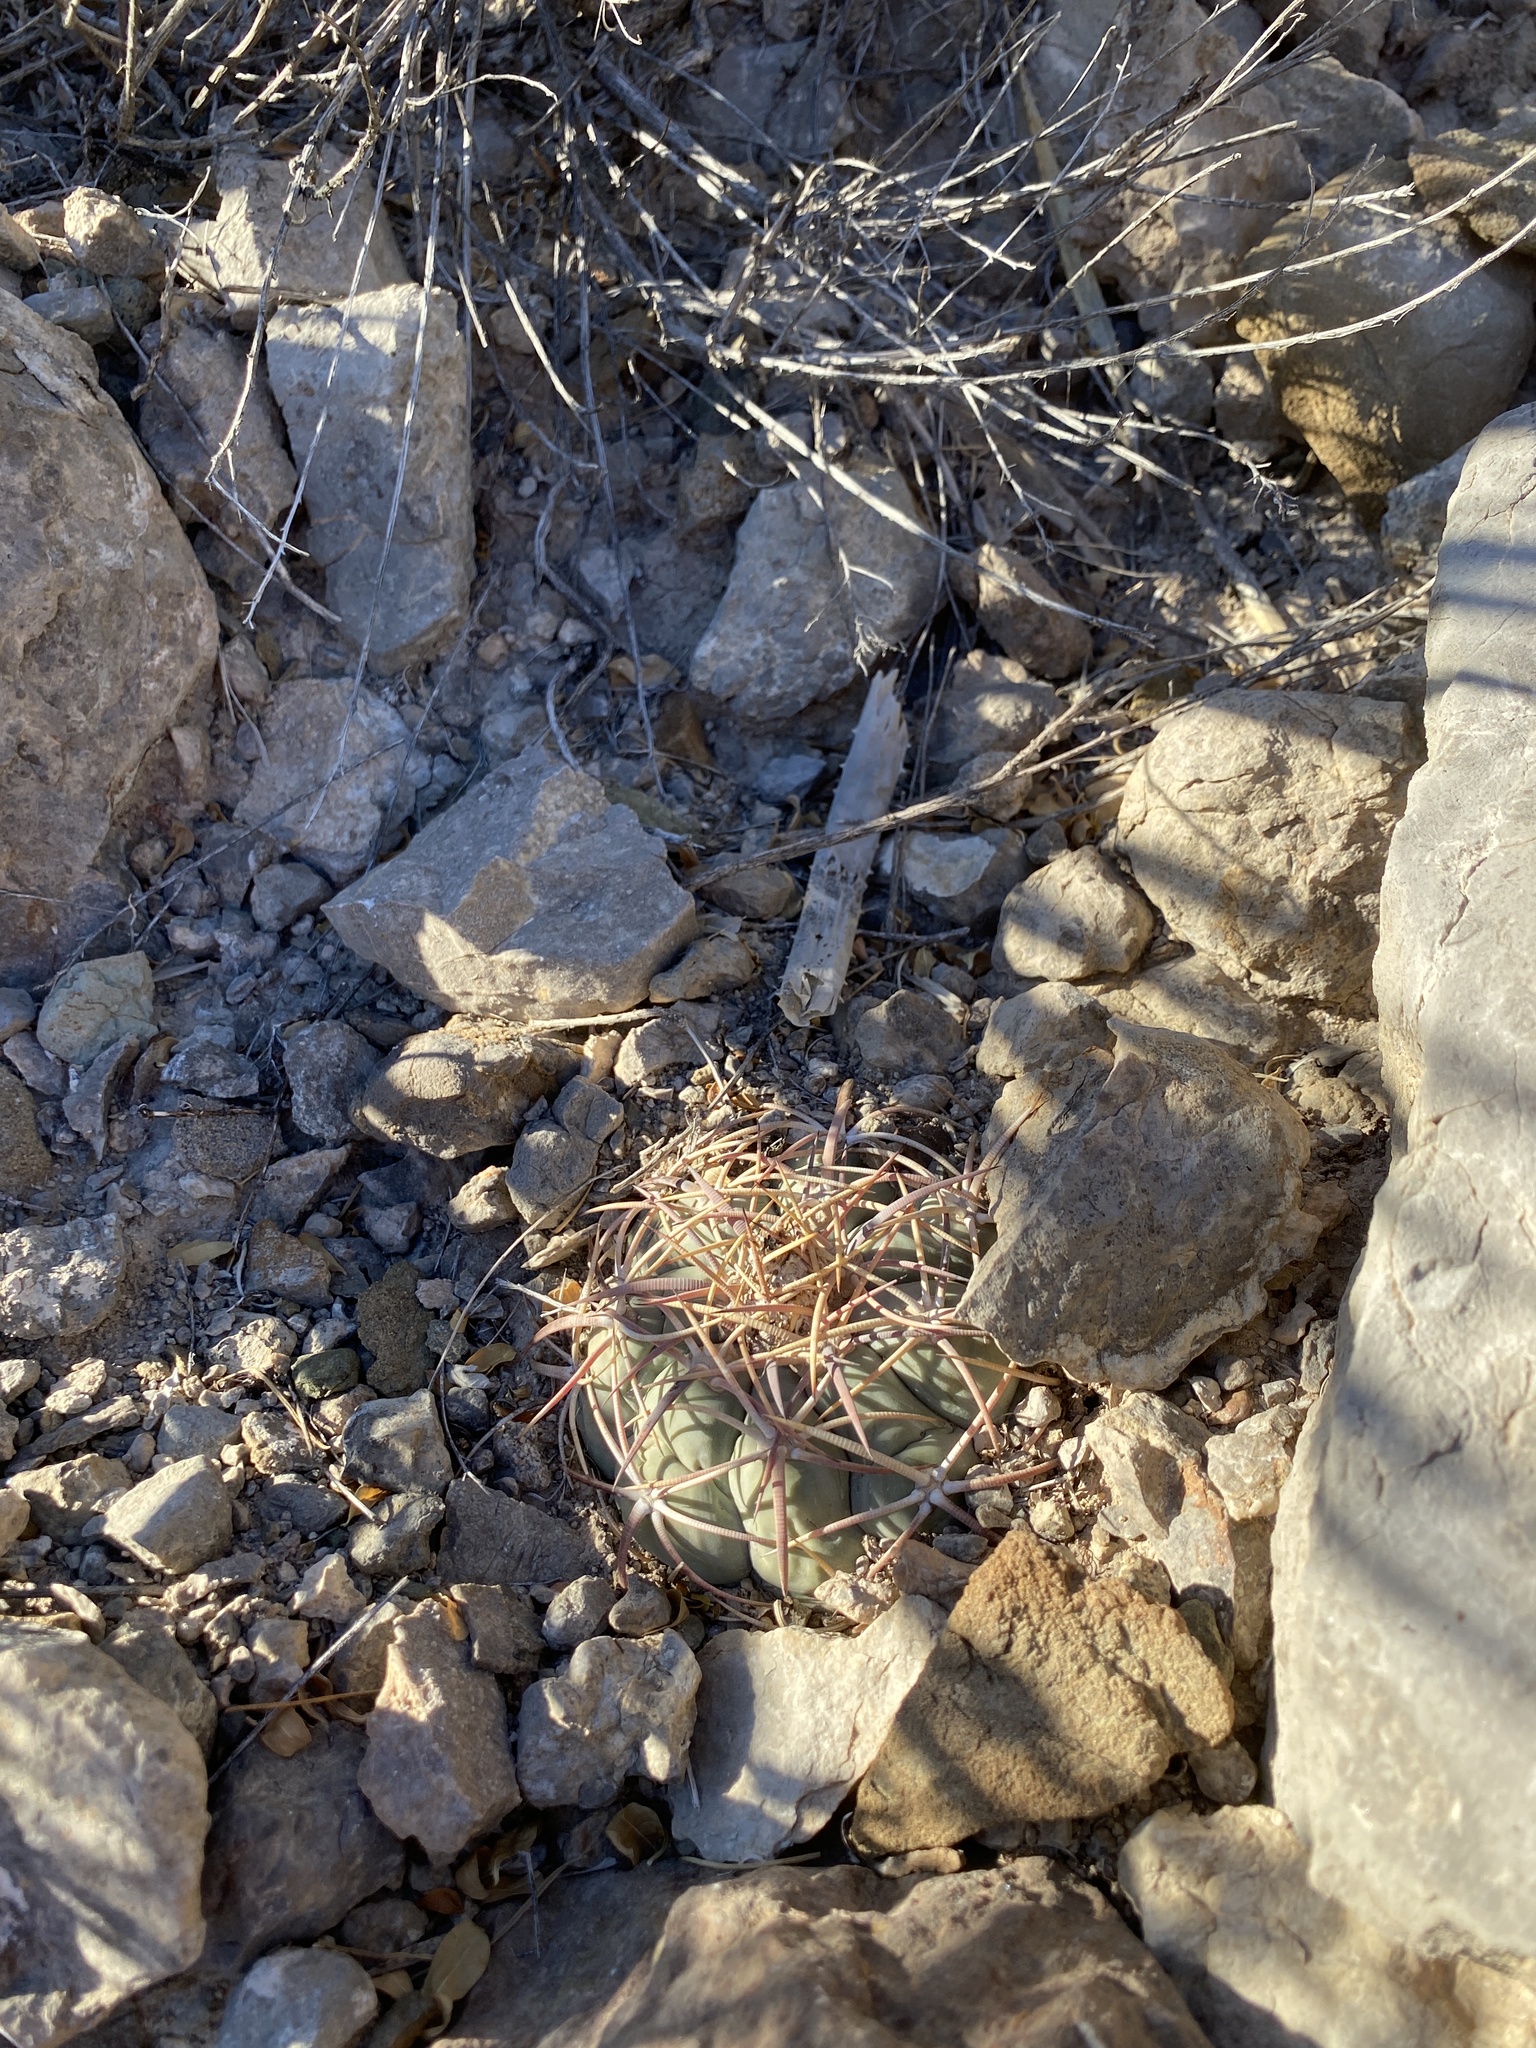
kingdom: Plantae
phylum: Tracheophyta
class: Magnoliopsida
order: Caryophyllales
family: Cactaceae
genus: Echinocactus
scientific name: Echinocactus horizonthalonius
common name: Devilshead
